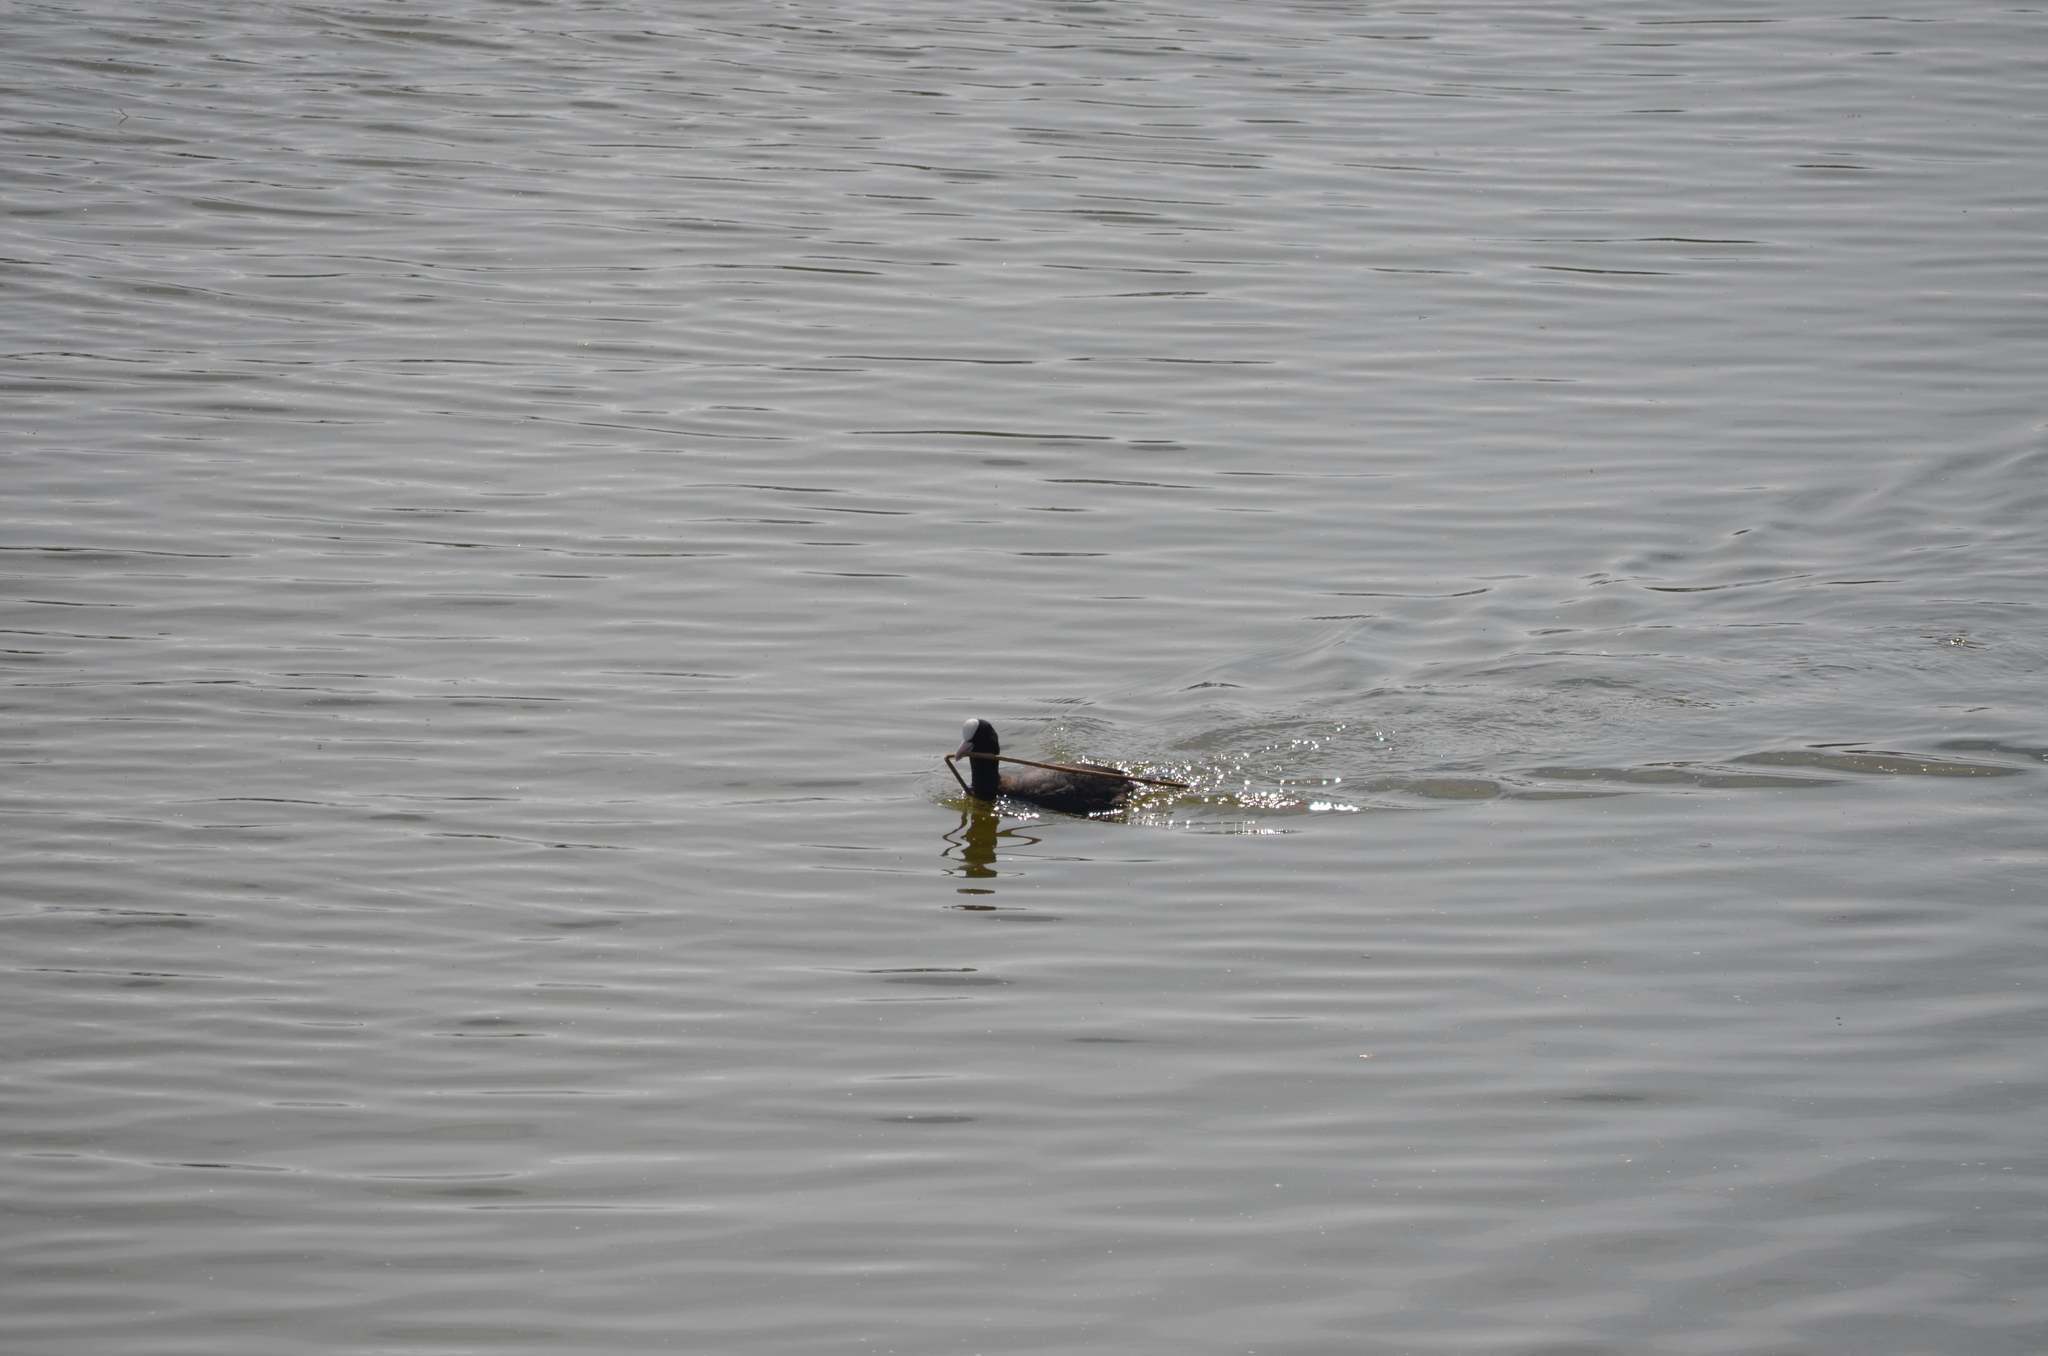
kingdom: Animalia
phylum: Chordata
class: Aves
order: Gruiformes
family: Rallidae
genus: Fulica
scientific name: Fulica atra
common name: Eurasian coot
